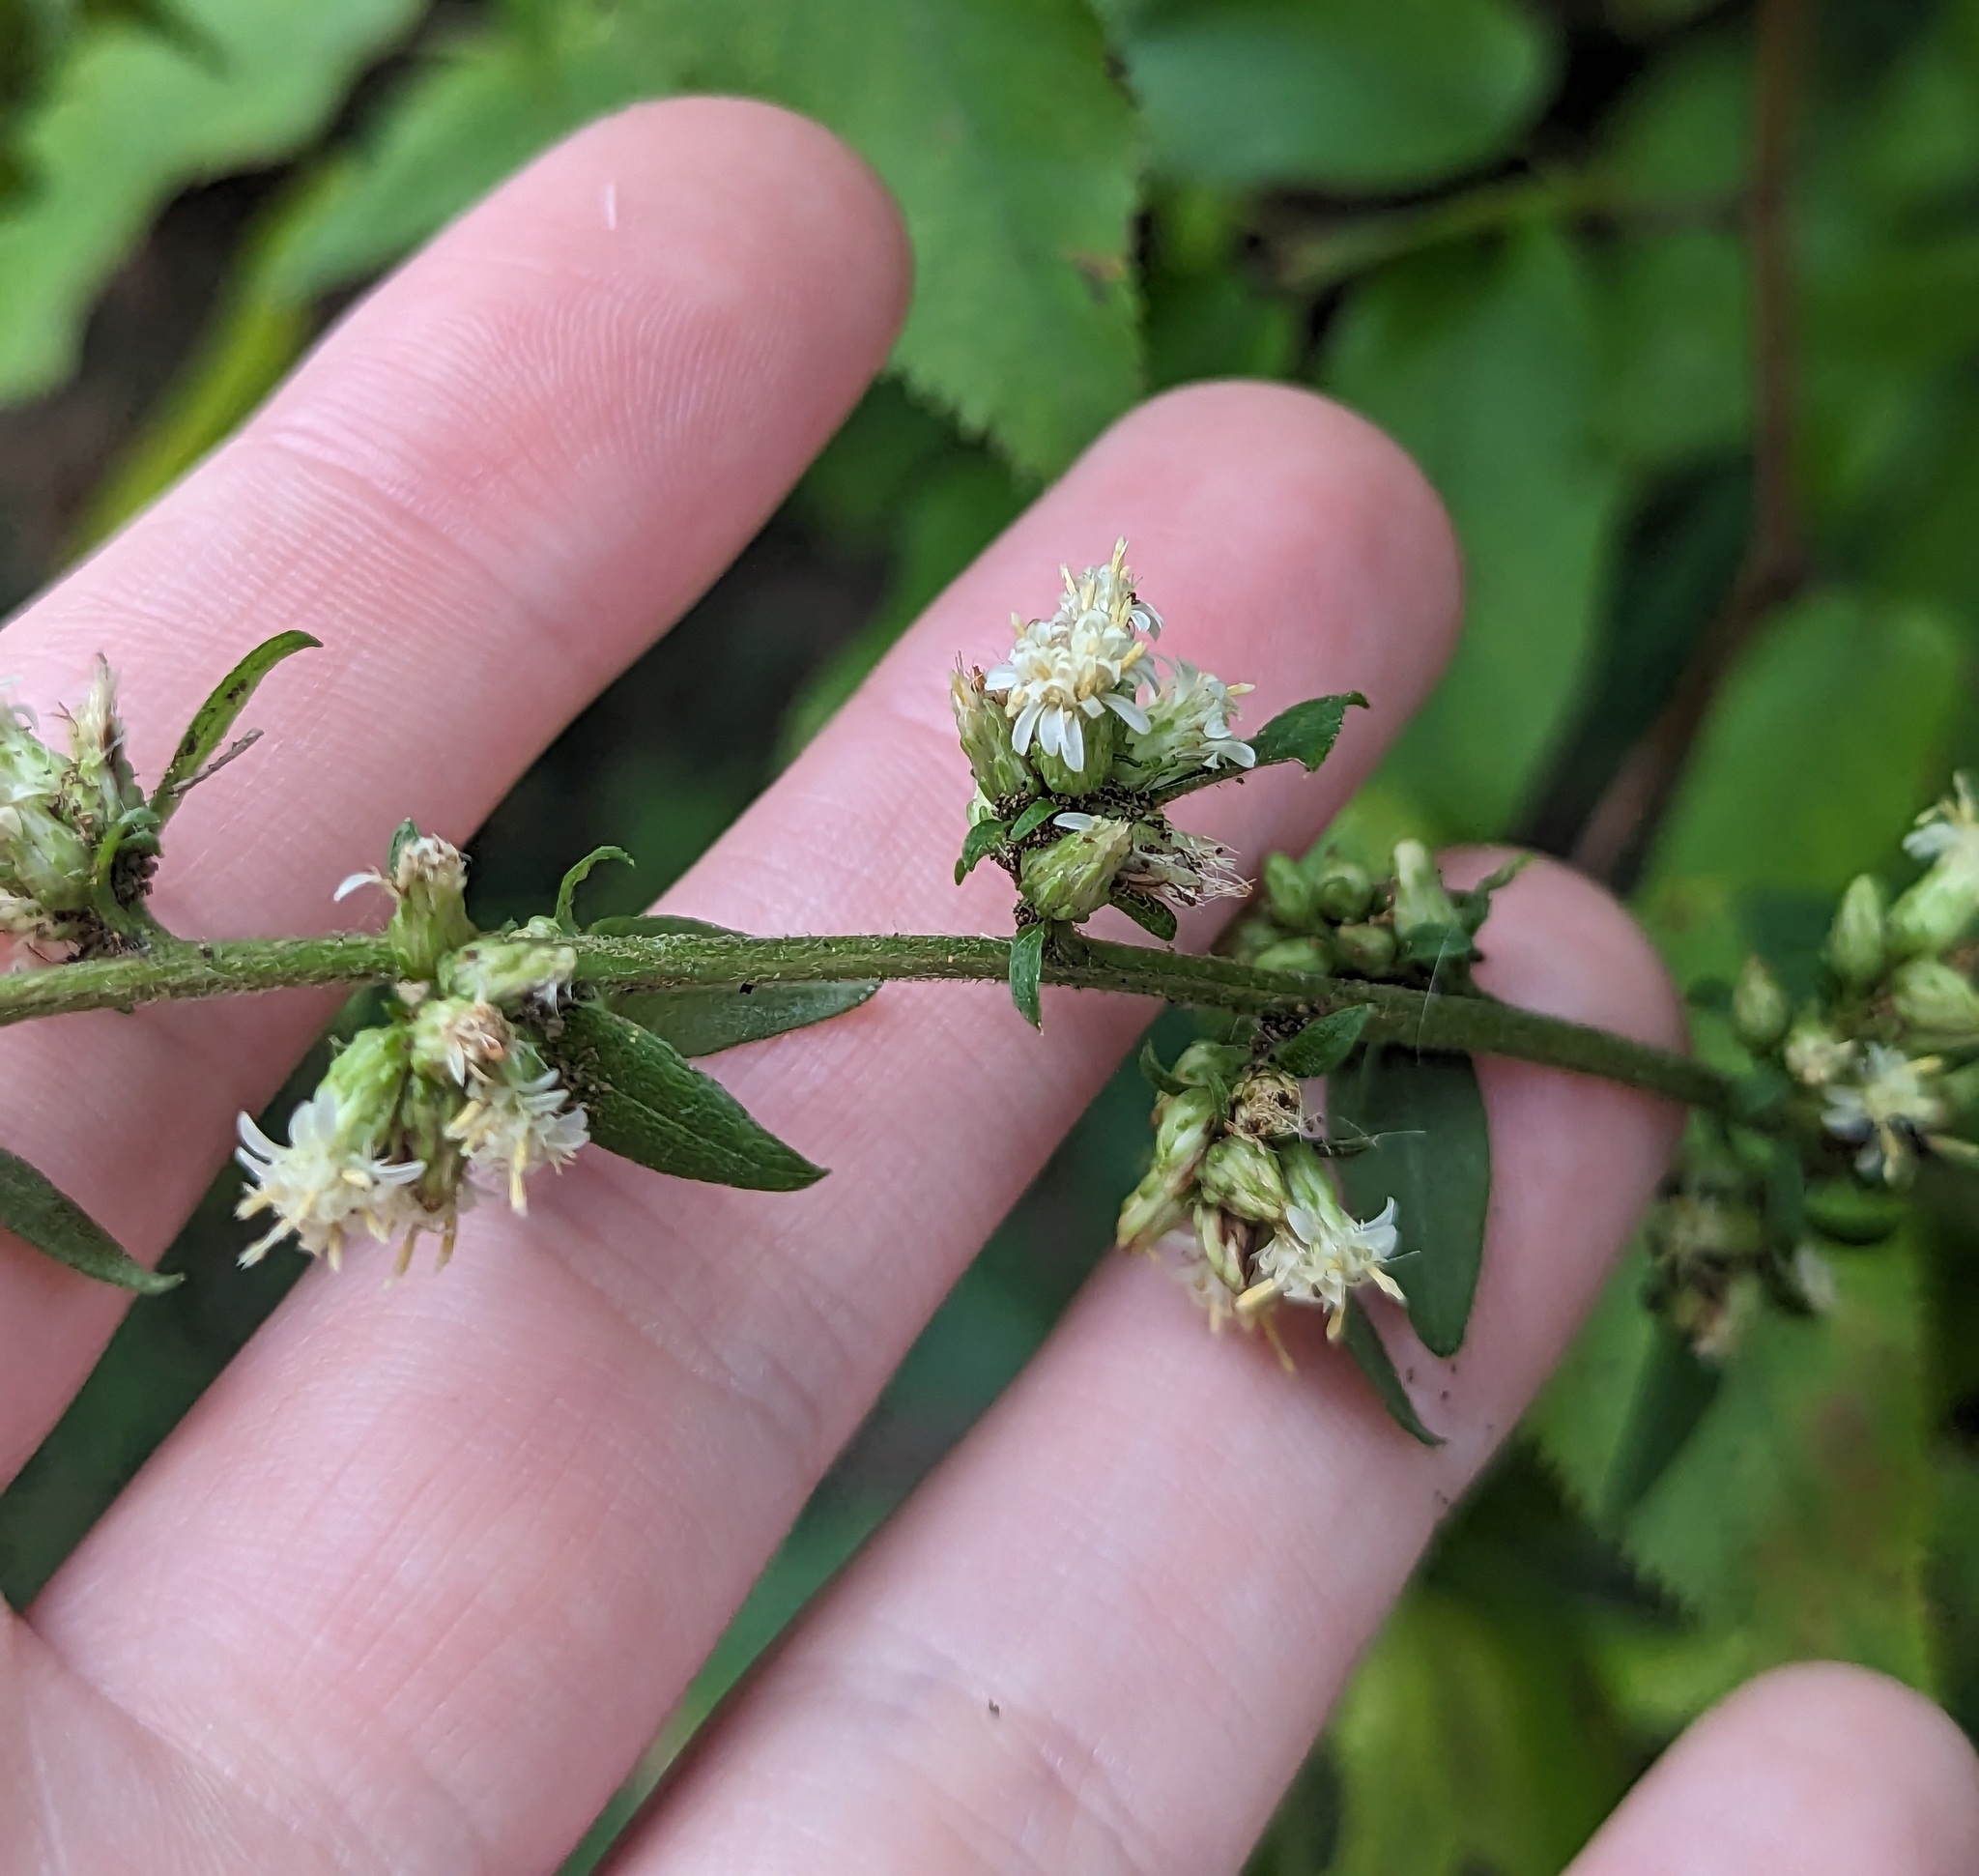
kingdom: Plantae
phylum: Tracheophyta
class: Magnoliopsida
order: Asterales
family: Asteraceae
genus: Solidago
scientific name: Solidago bicolor
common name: Silverrod
